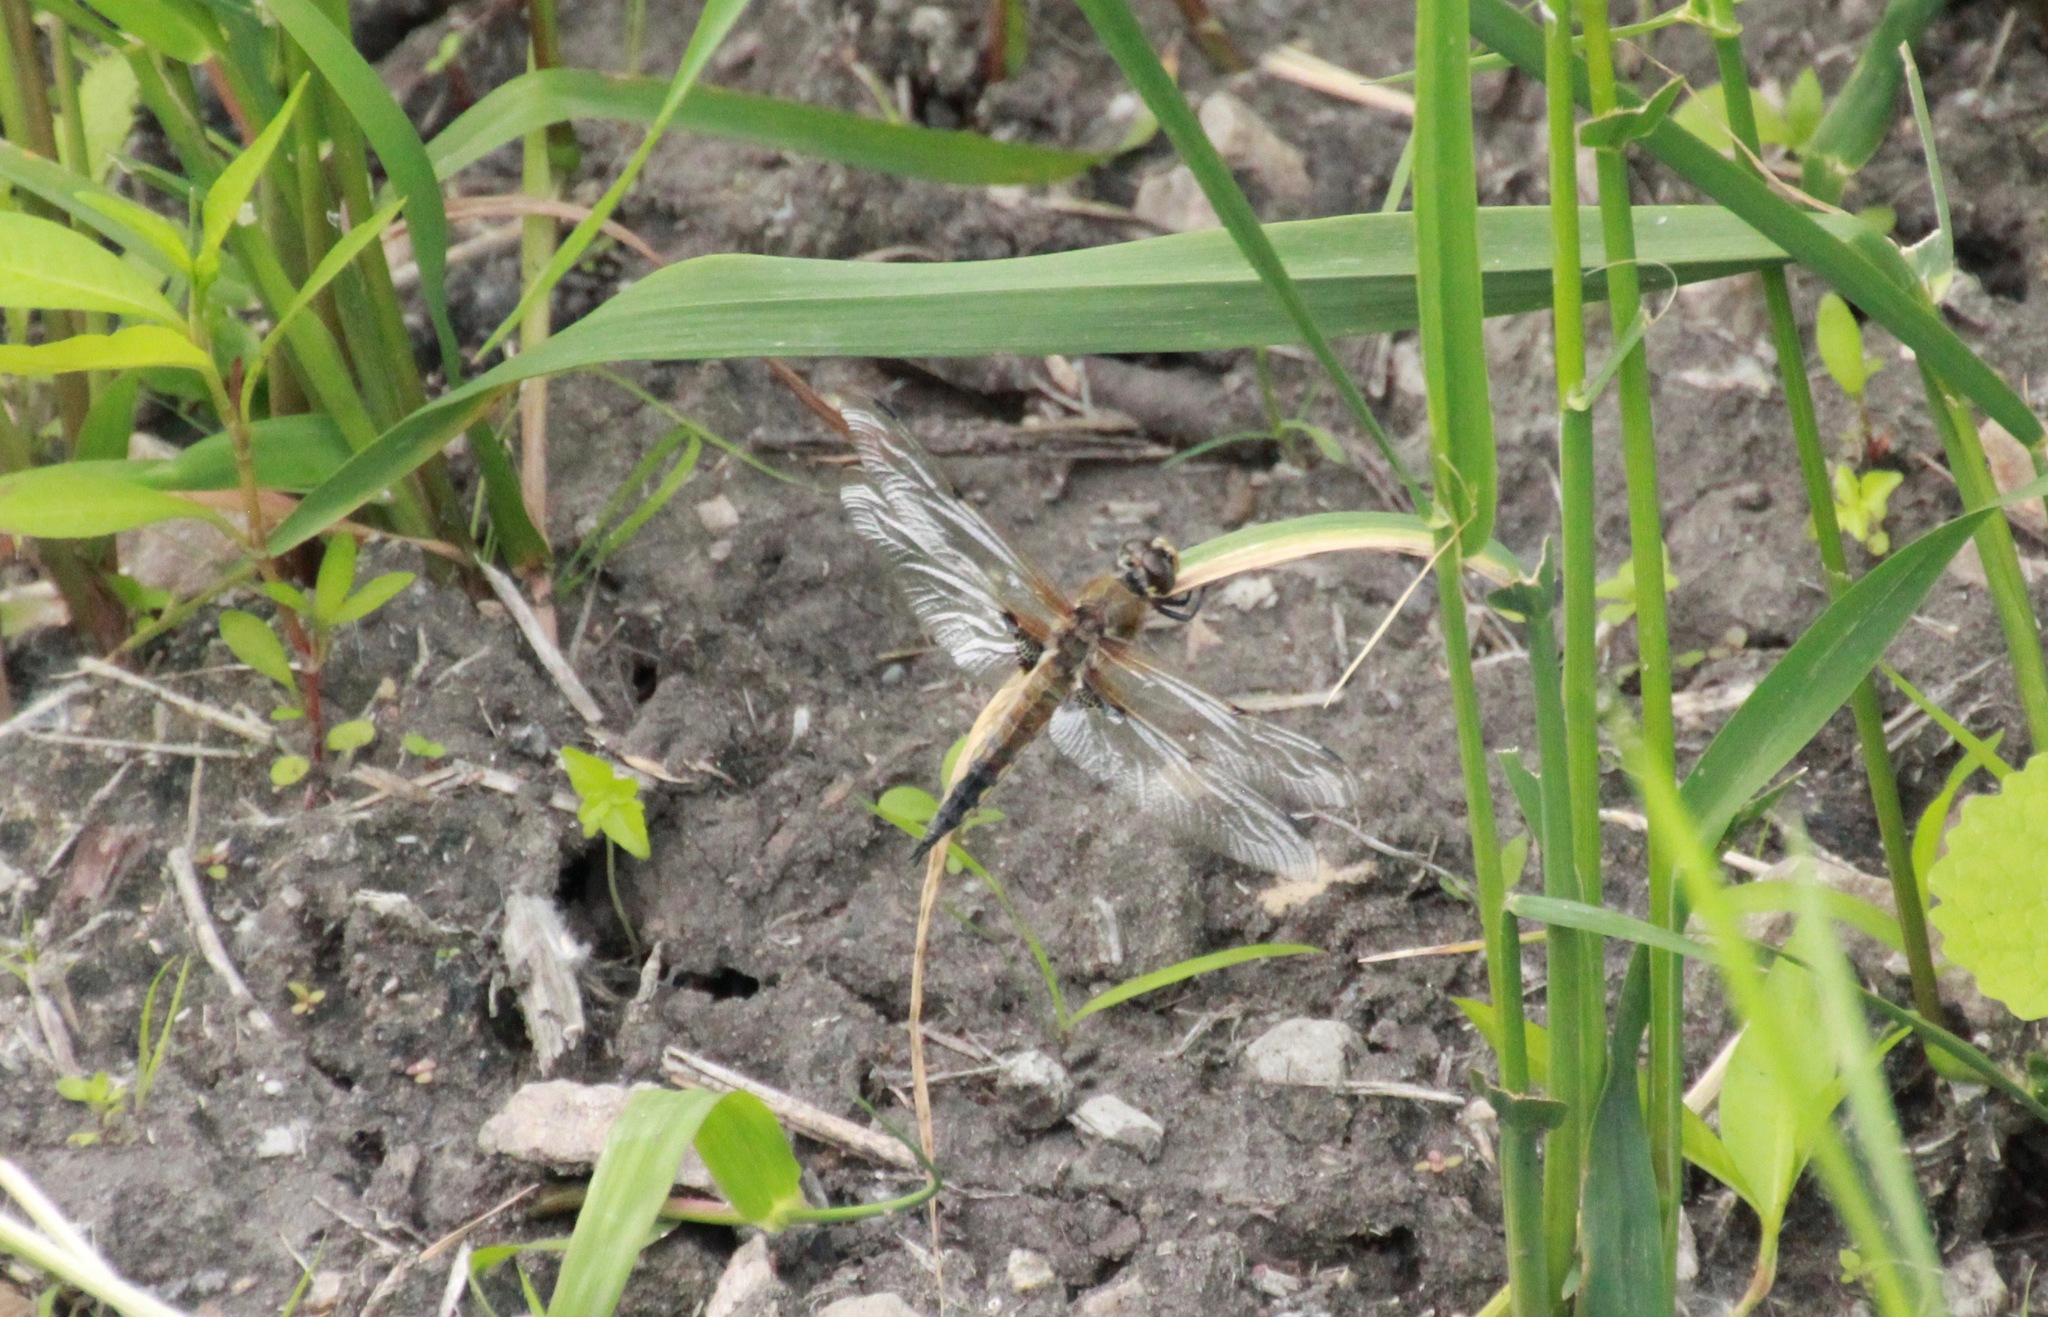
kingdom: Animalia
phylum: Arthropoda
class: Insecta
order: Odonata
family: Libellulidae
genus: Libellula
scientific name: Libellula quadrimaculata
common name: Four-spotted chaser
